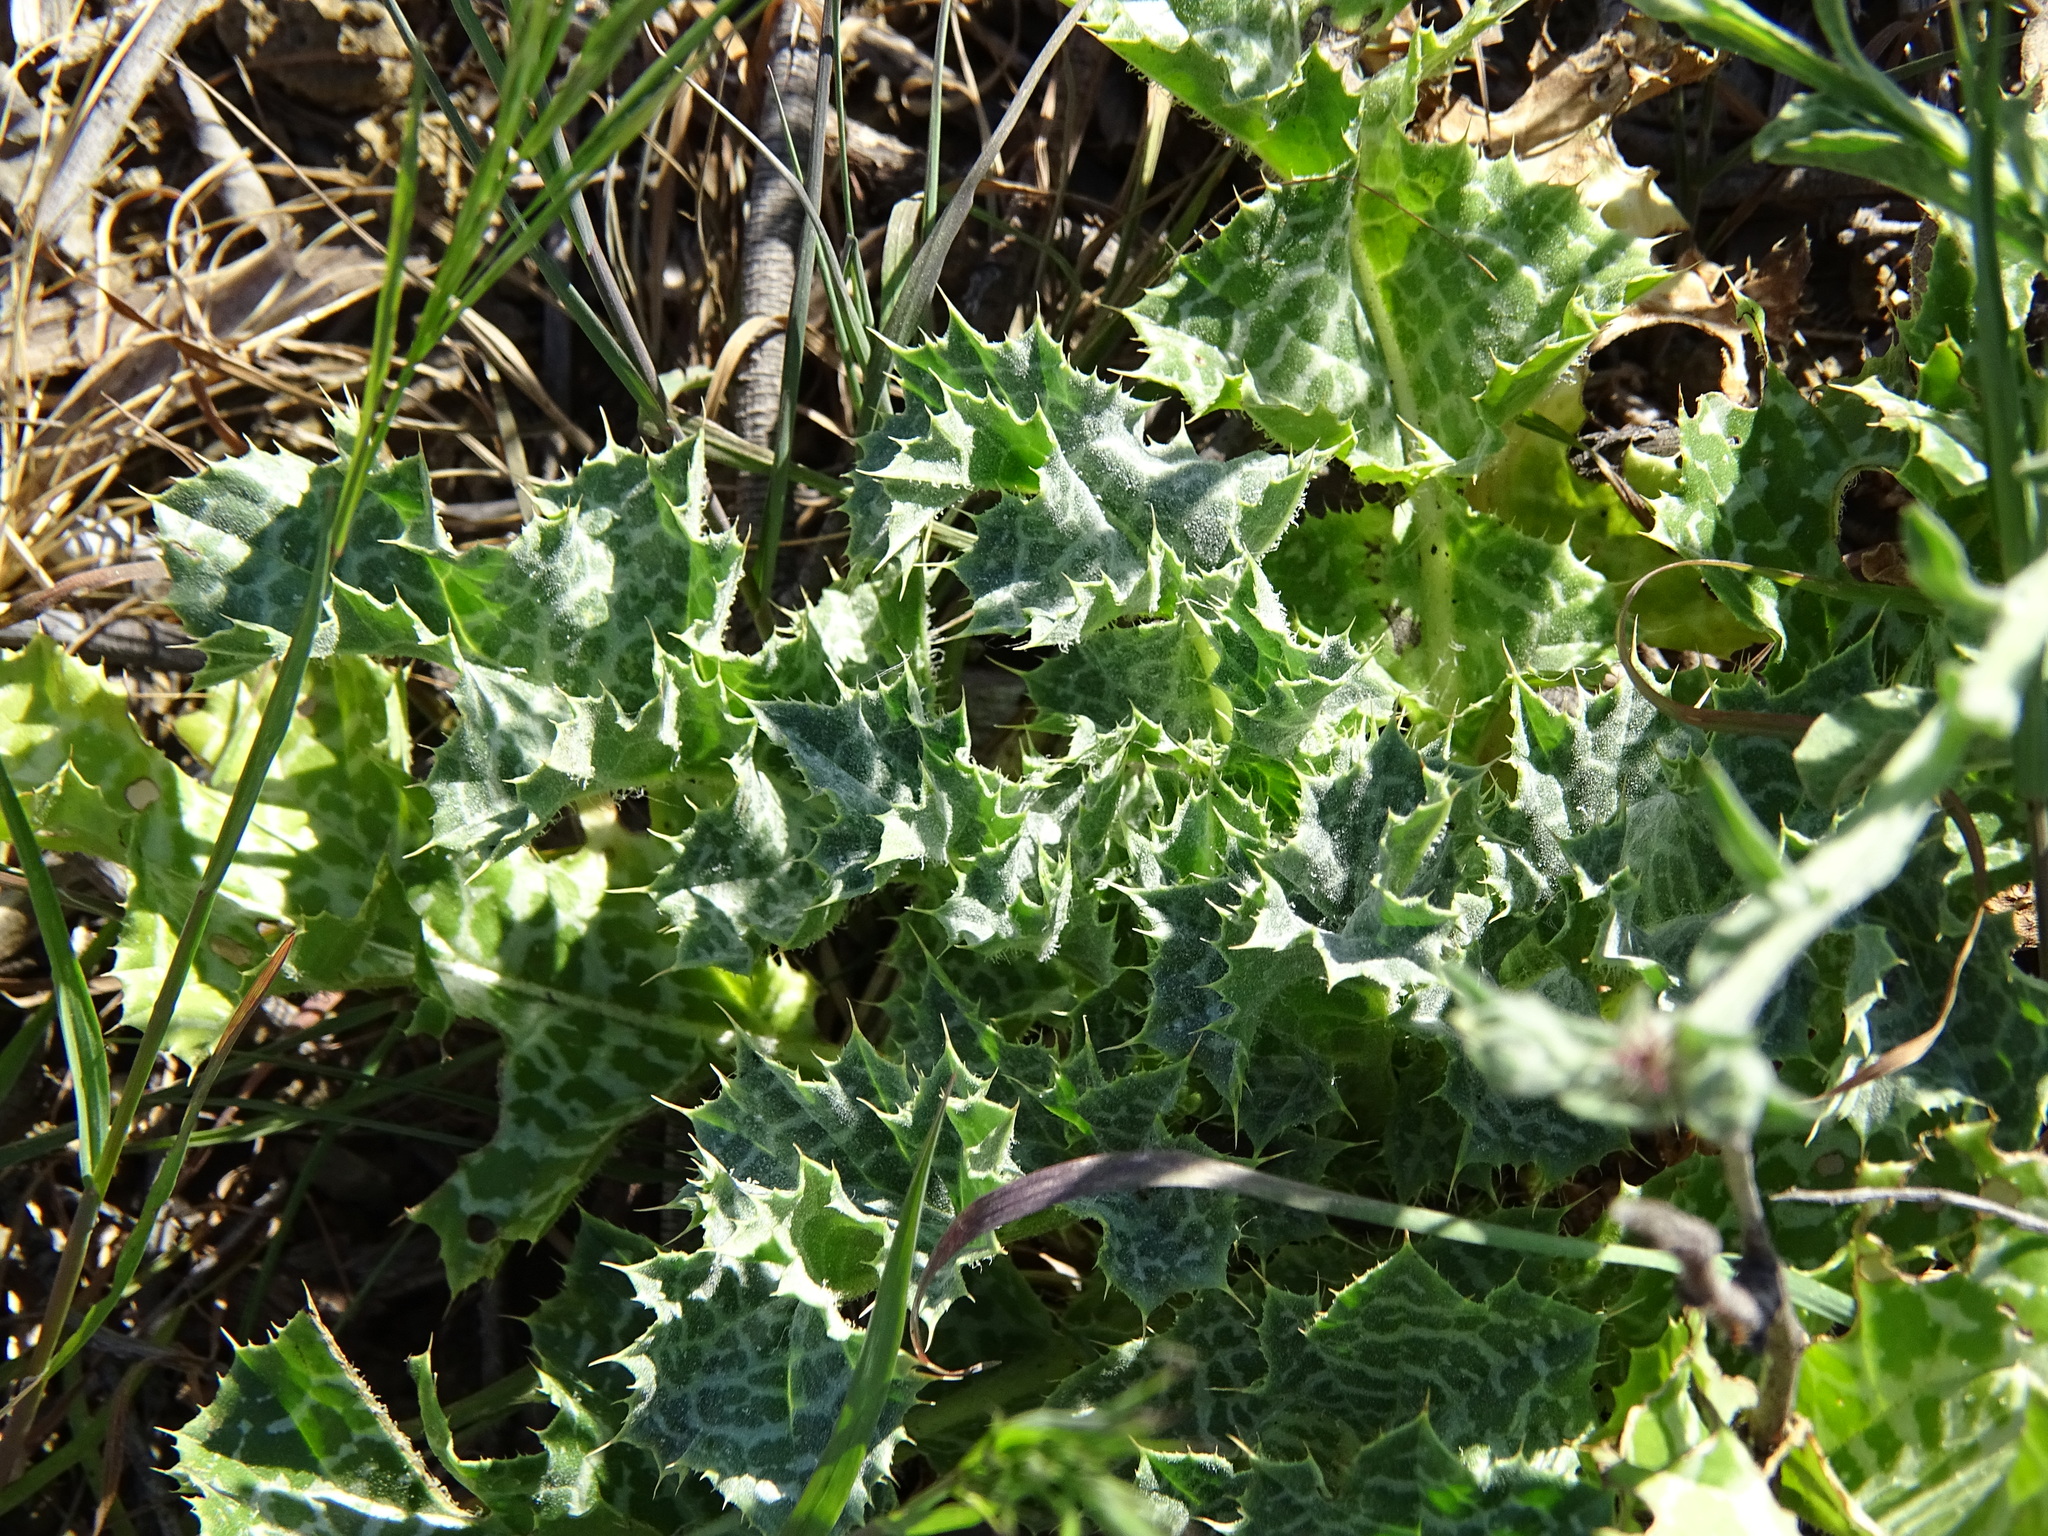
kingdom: Plantae
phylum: Tracheophyta
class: Magnoliopsida
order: Asterales
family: Asteraceae
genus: Silybum
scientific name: Silybum marianum
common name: Milk thistle
